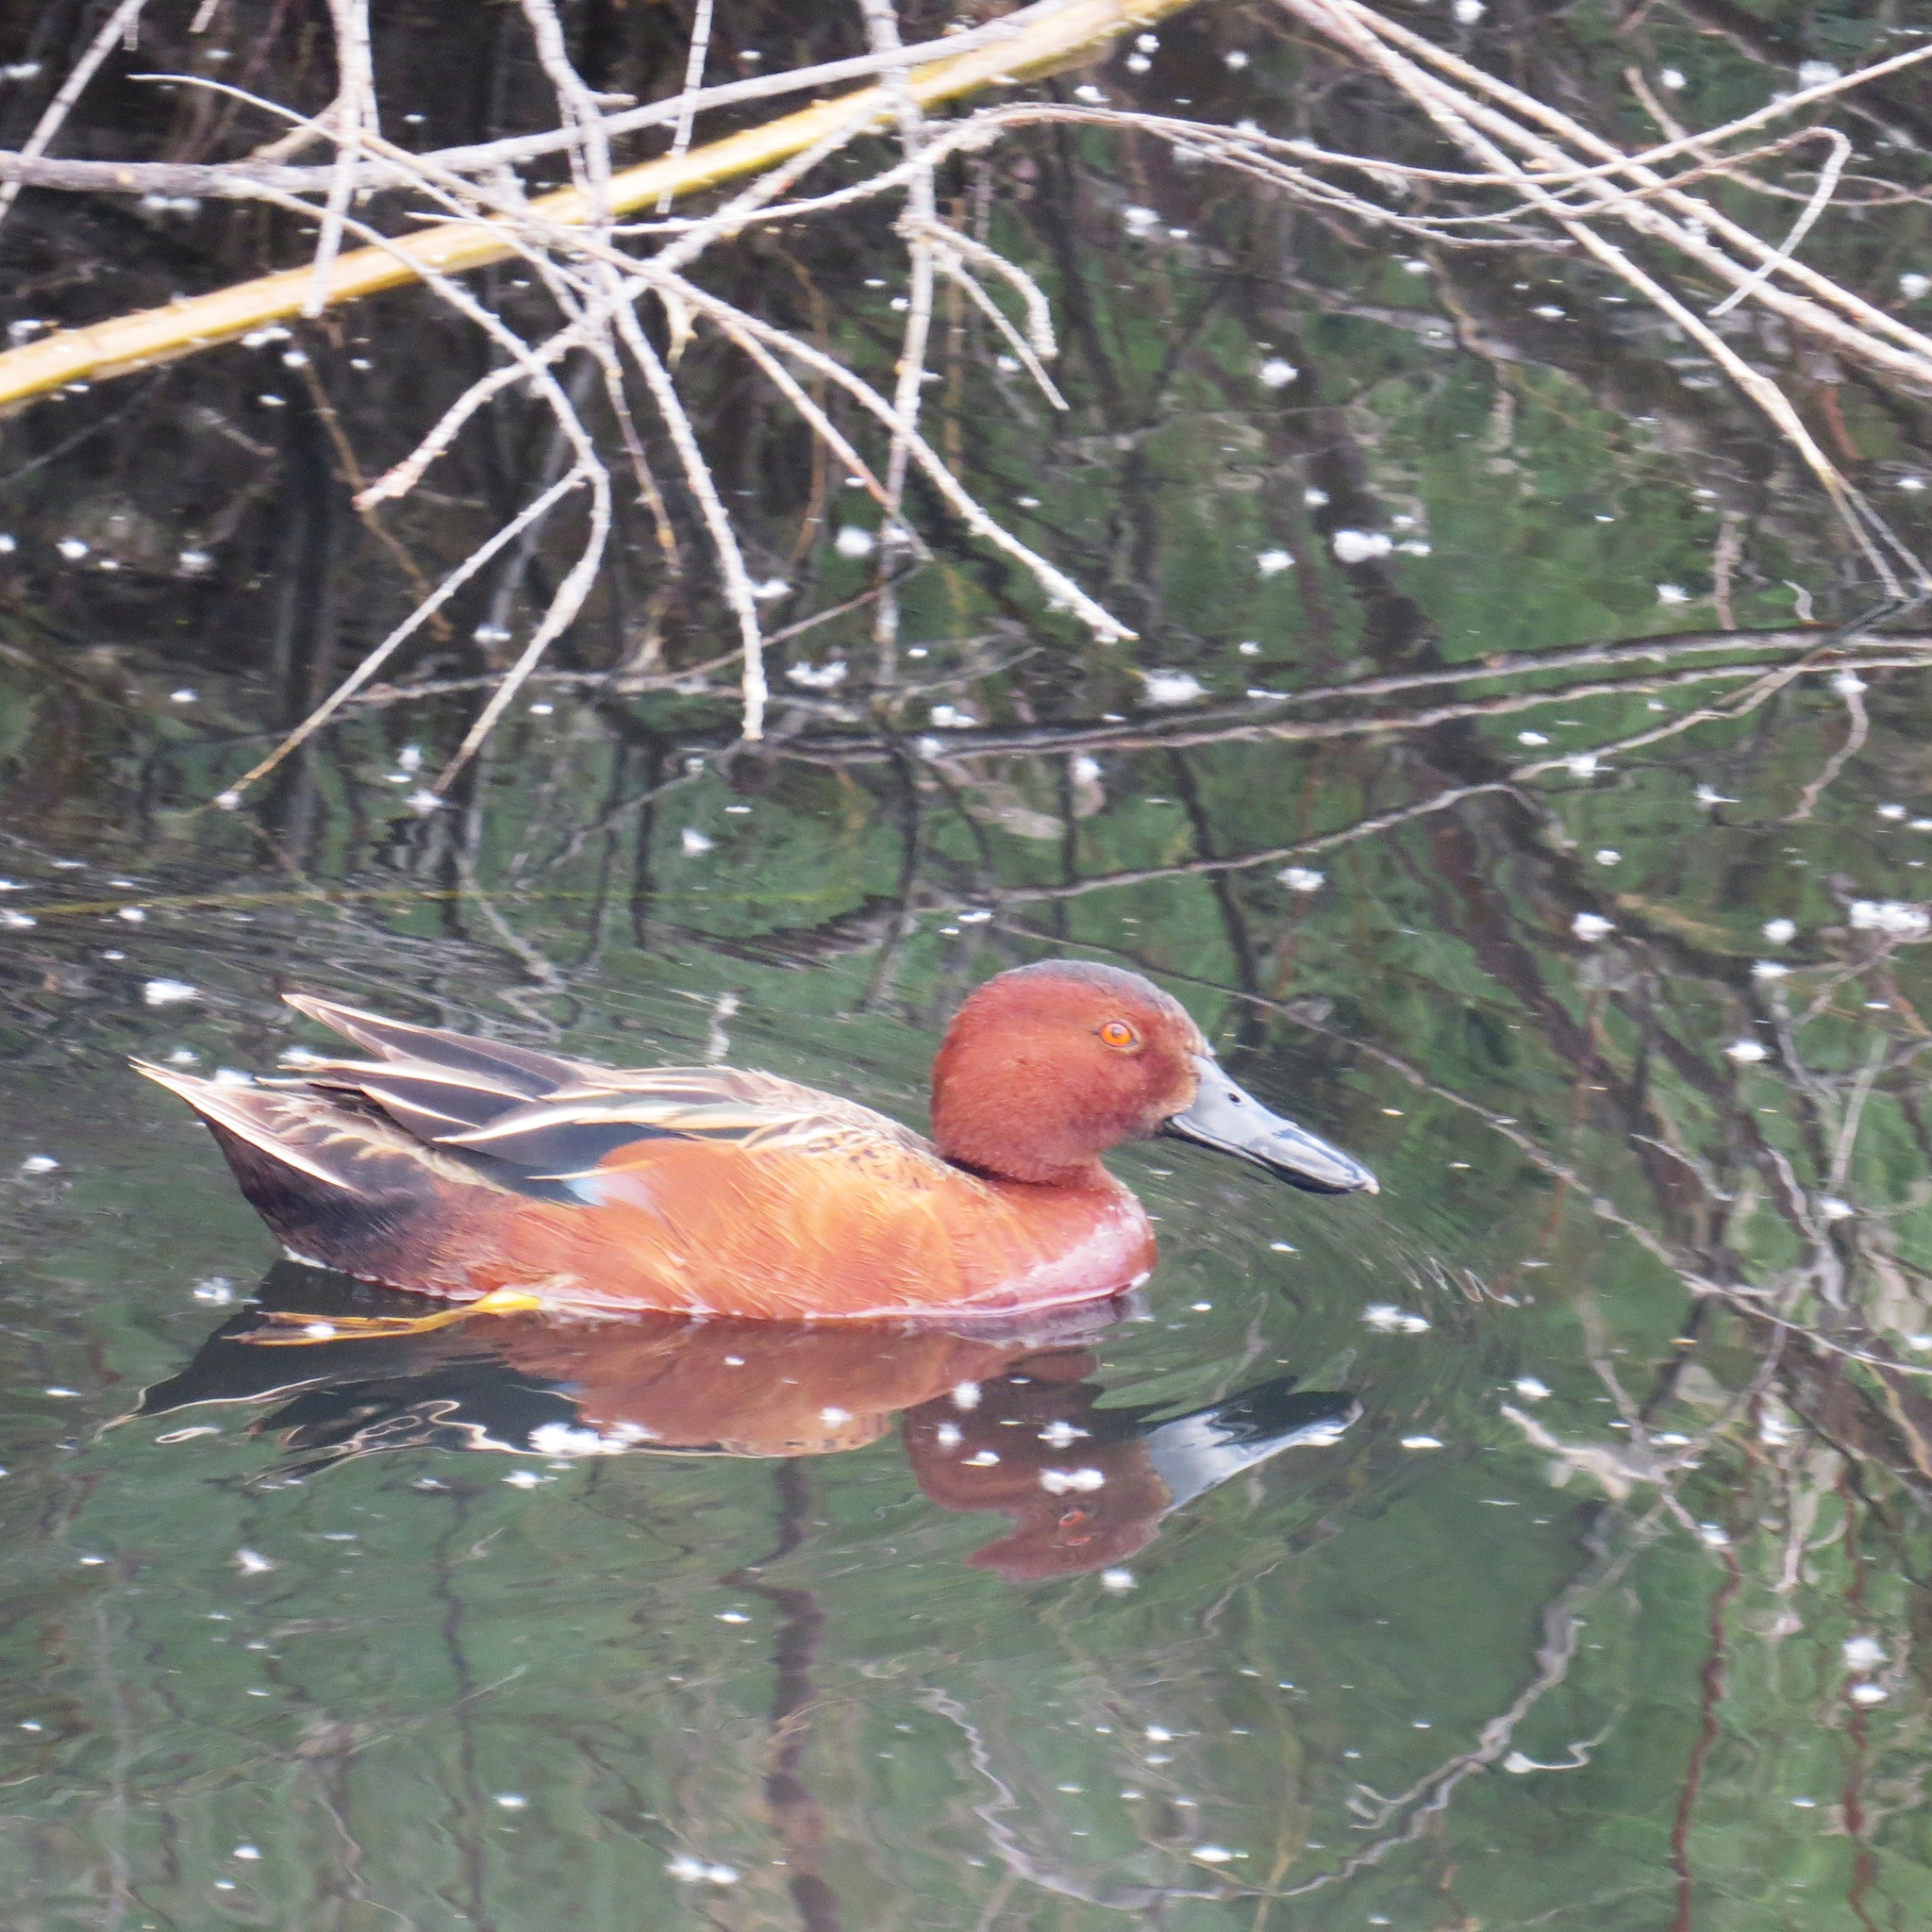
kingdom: Animalia
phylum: Chordata
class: Aves
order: Anseriformes
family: Anatidae
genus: Spatula
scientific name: Spatula cyanoptera
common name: Cinnamon teal
